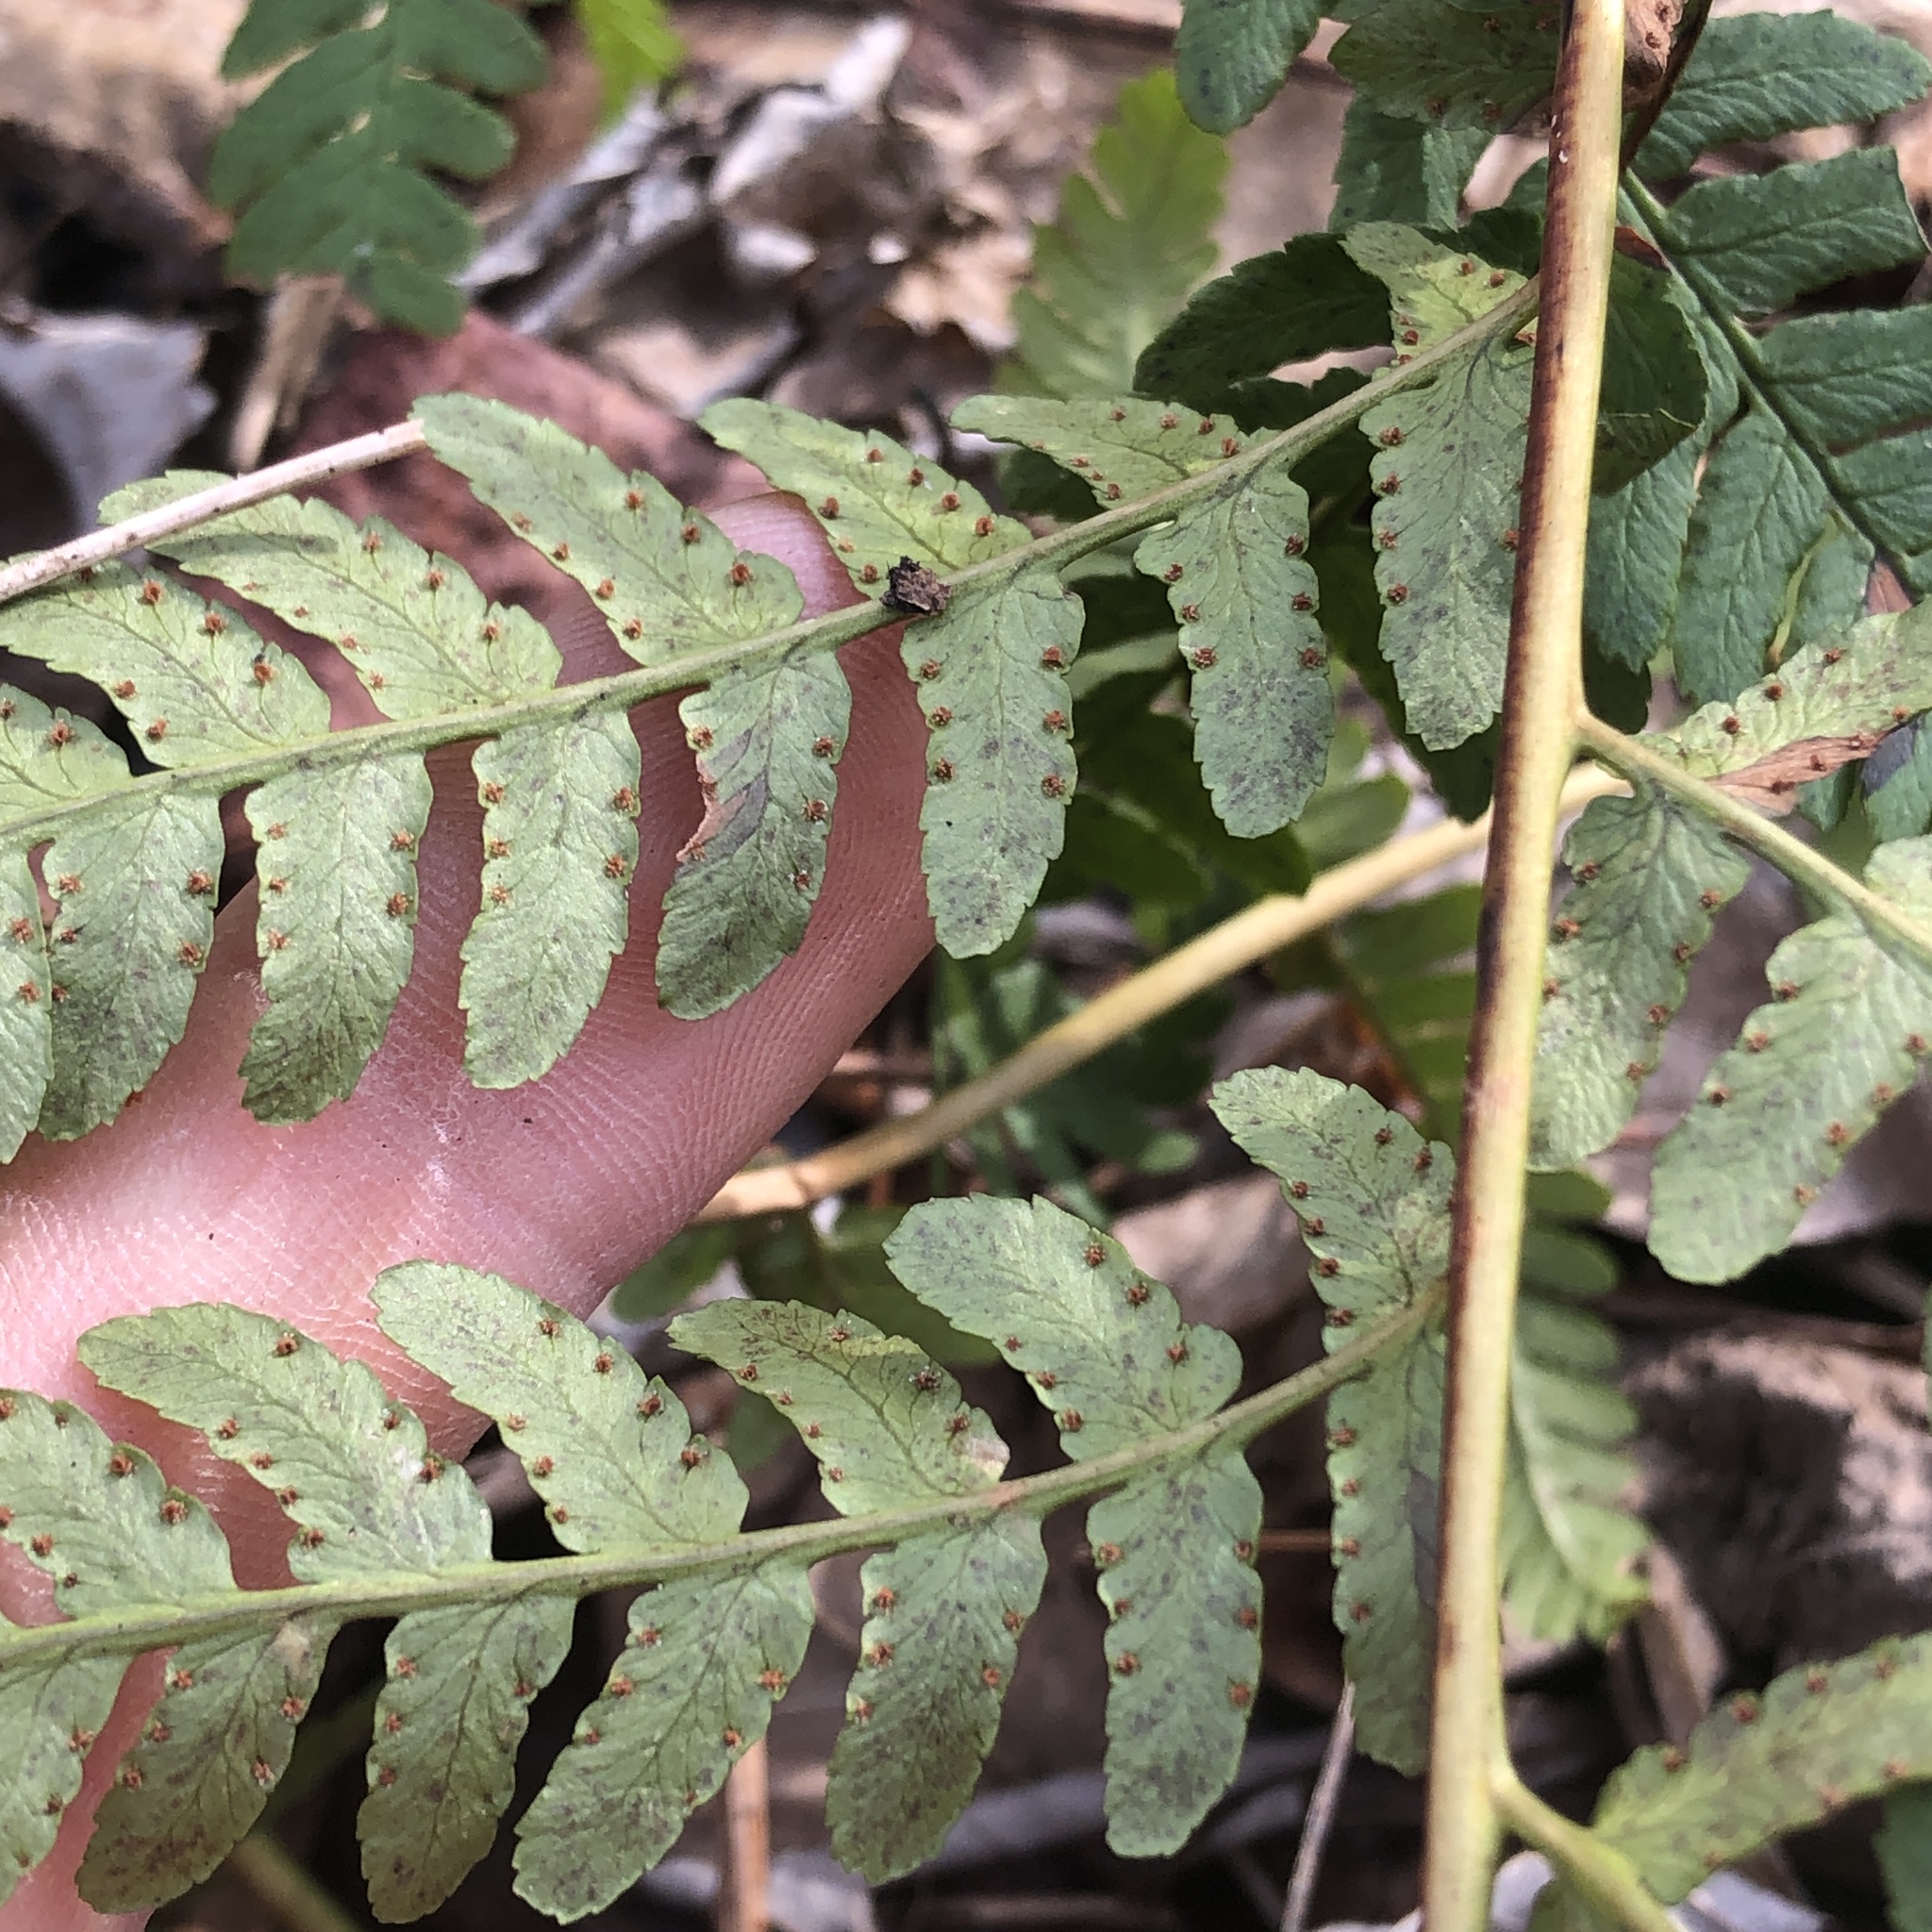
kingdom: Plantae
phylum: Tracheophyta
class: Polypodiopsida
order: Polypodiales
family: Dryopteridaceae
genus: Dryopteris
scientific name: Dryopteris marginalis
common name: Marginal wood fern
